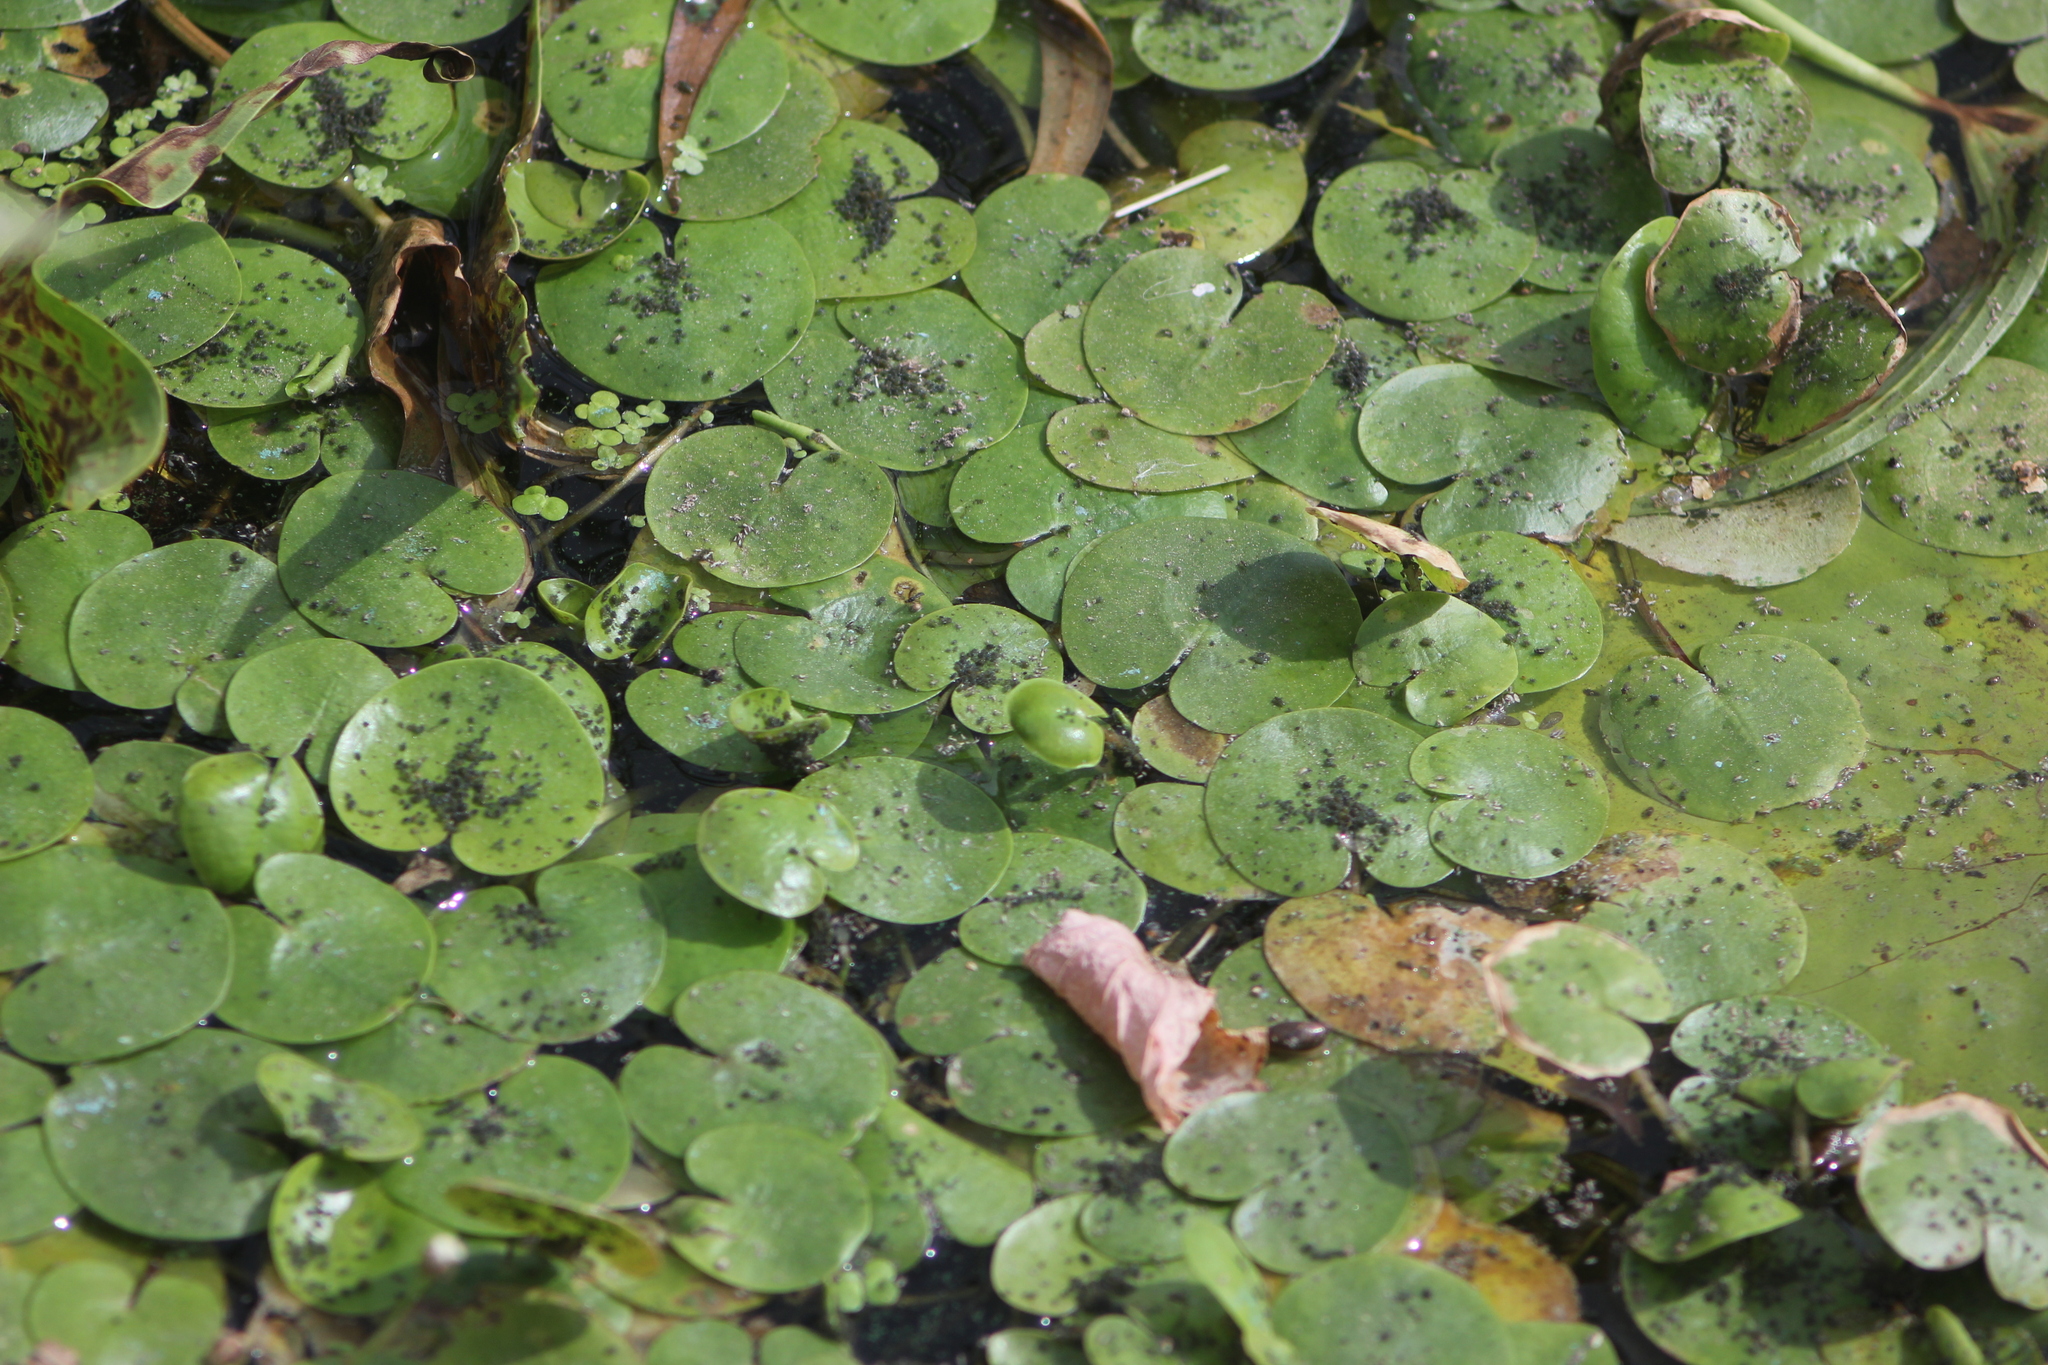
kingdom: Plantae
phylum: Tracheophyta
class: Liliopsida
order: Alismatales
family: Hydrocharitaceae
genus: Hydrocharis
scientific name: Hydrocharis morsus-ranae
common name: Frogbit
